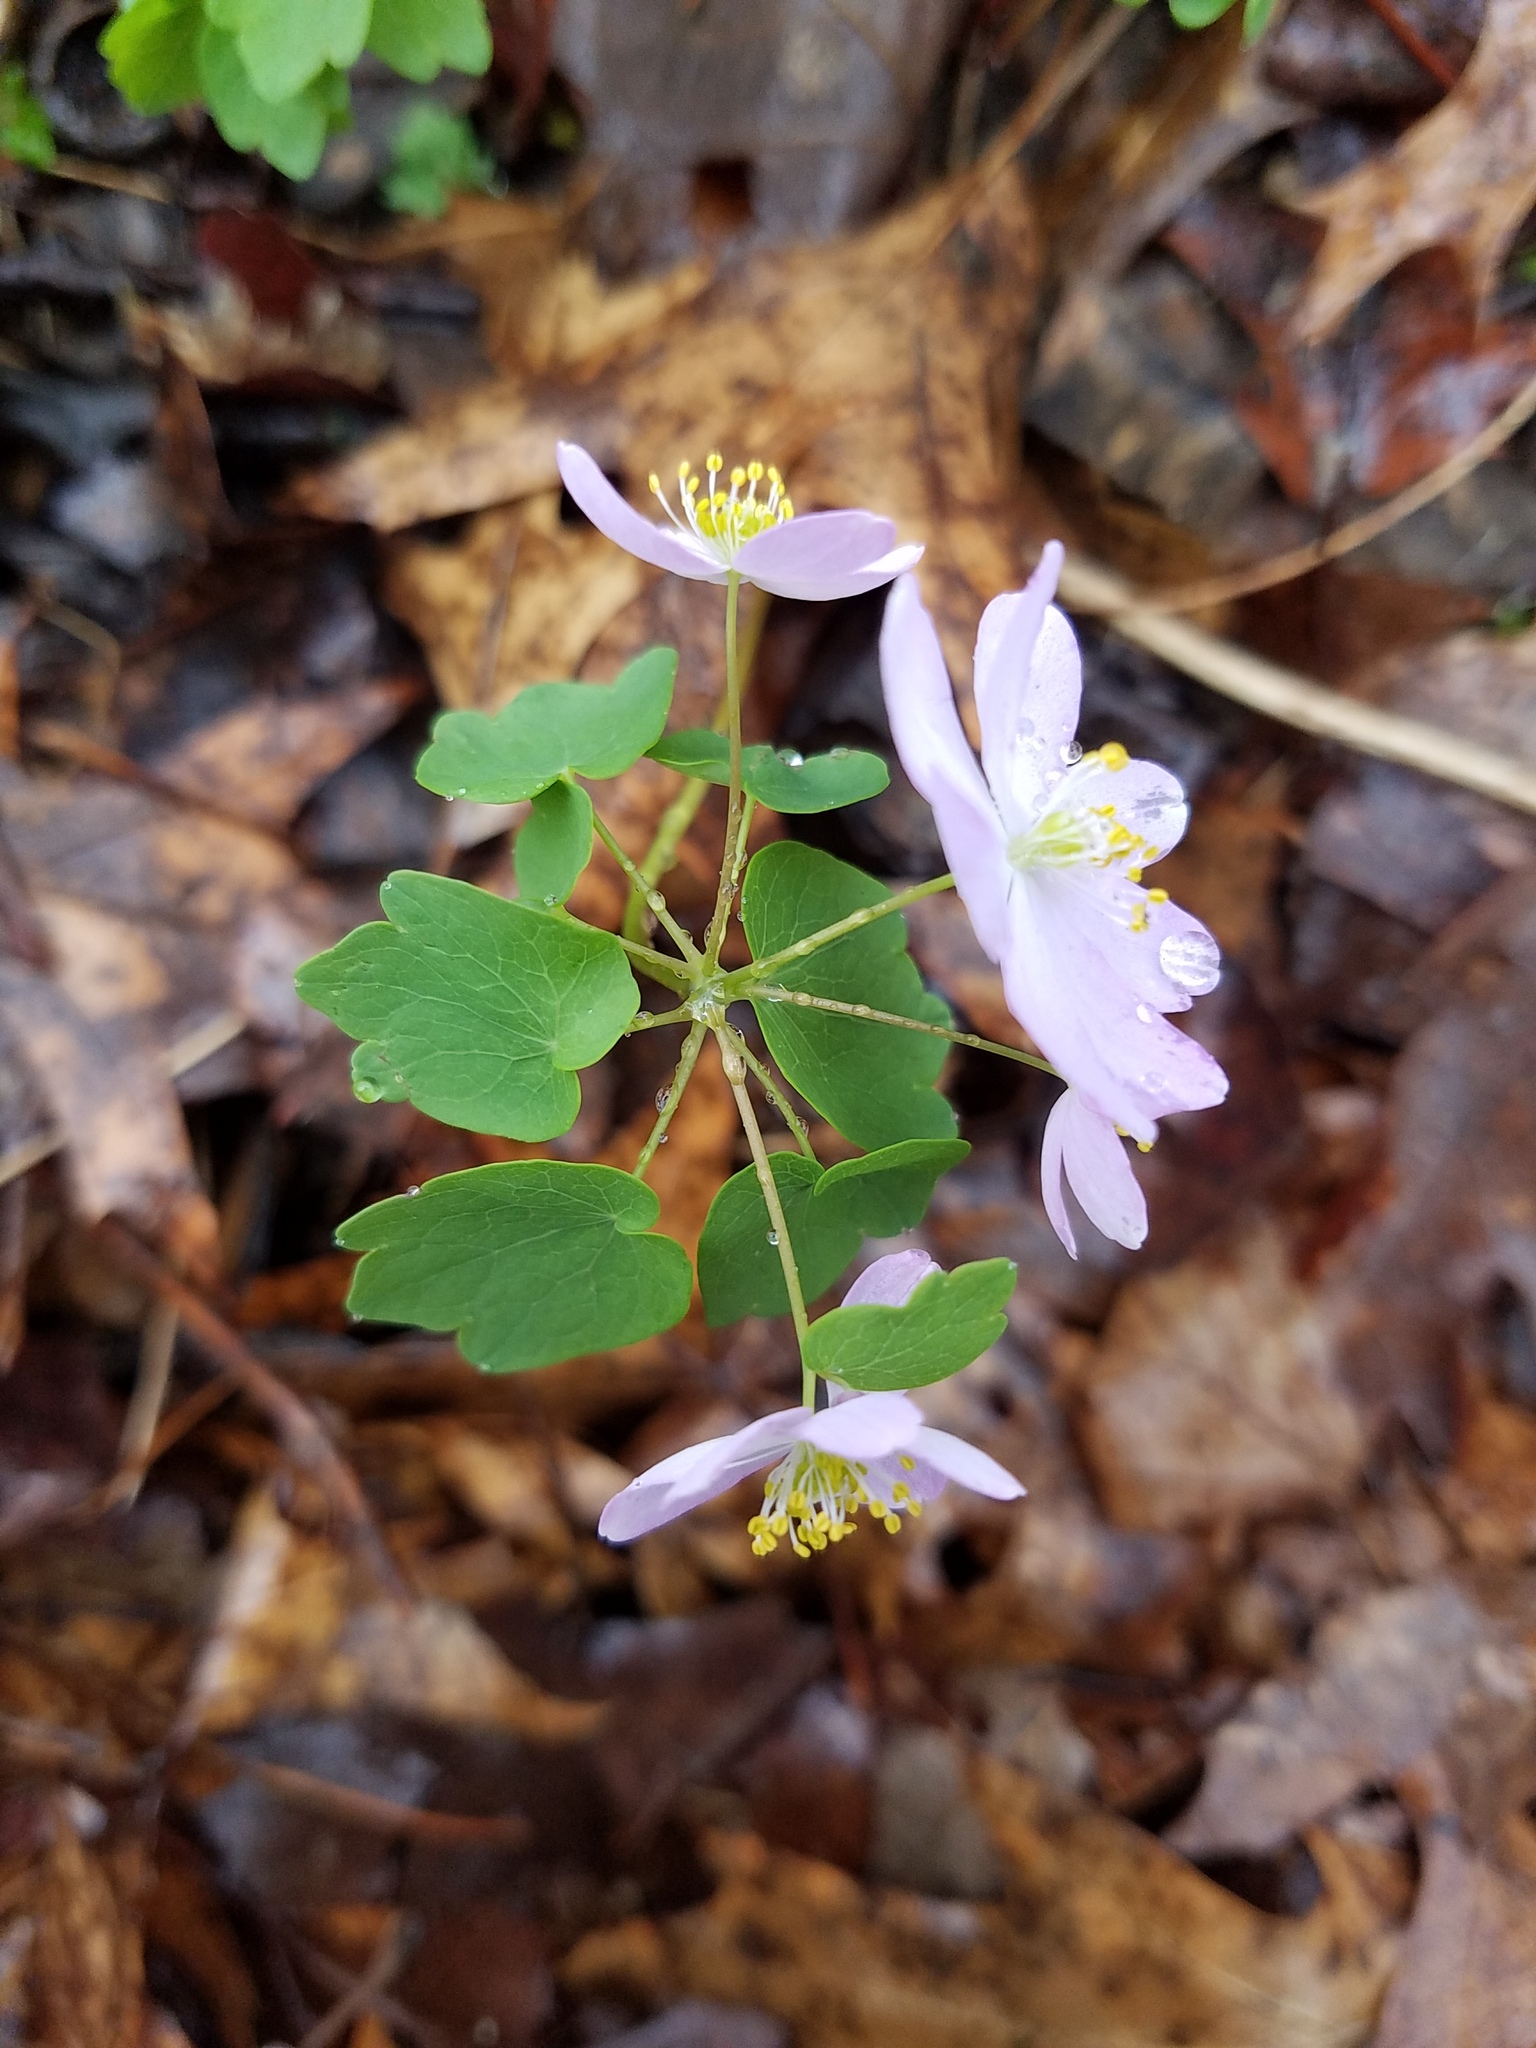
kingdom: Plantae
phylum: Tracheophyta
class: Magnoliopsida
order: Ranunculales
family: Ranunculaceae
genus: Thalictrum
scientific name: Thalictrum thalictroides
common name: Rue-anemone
